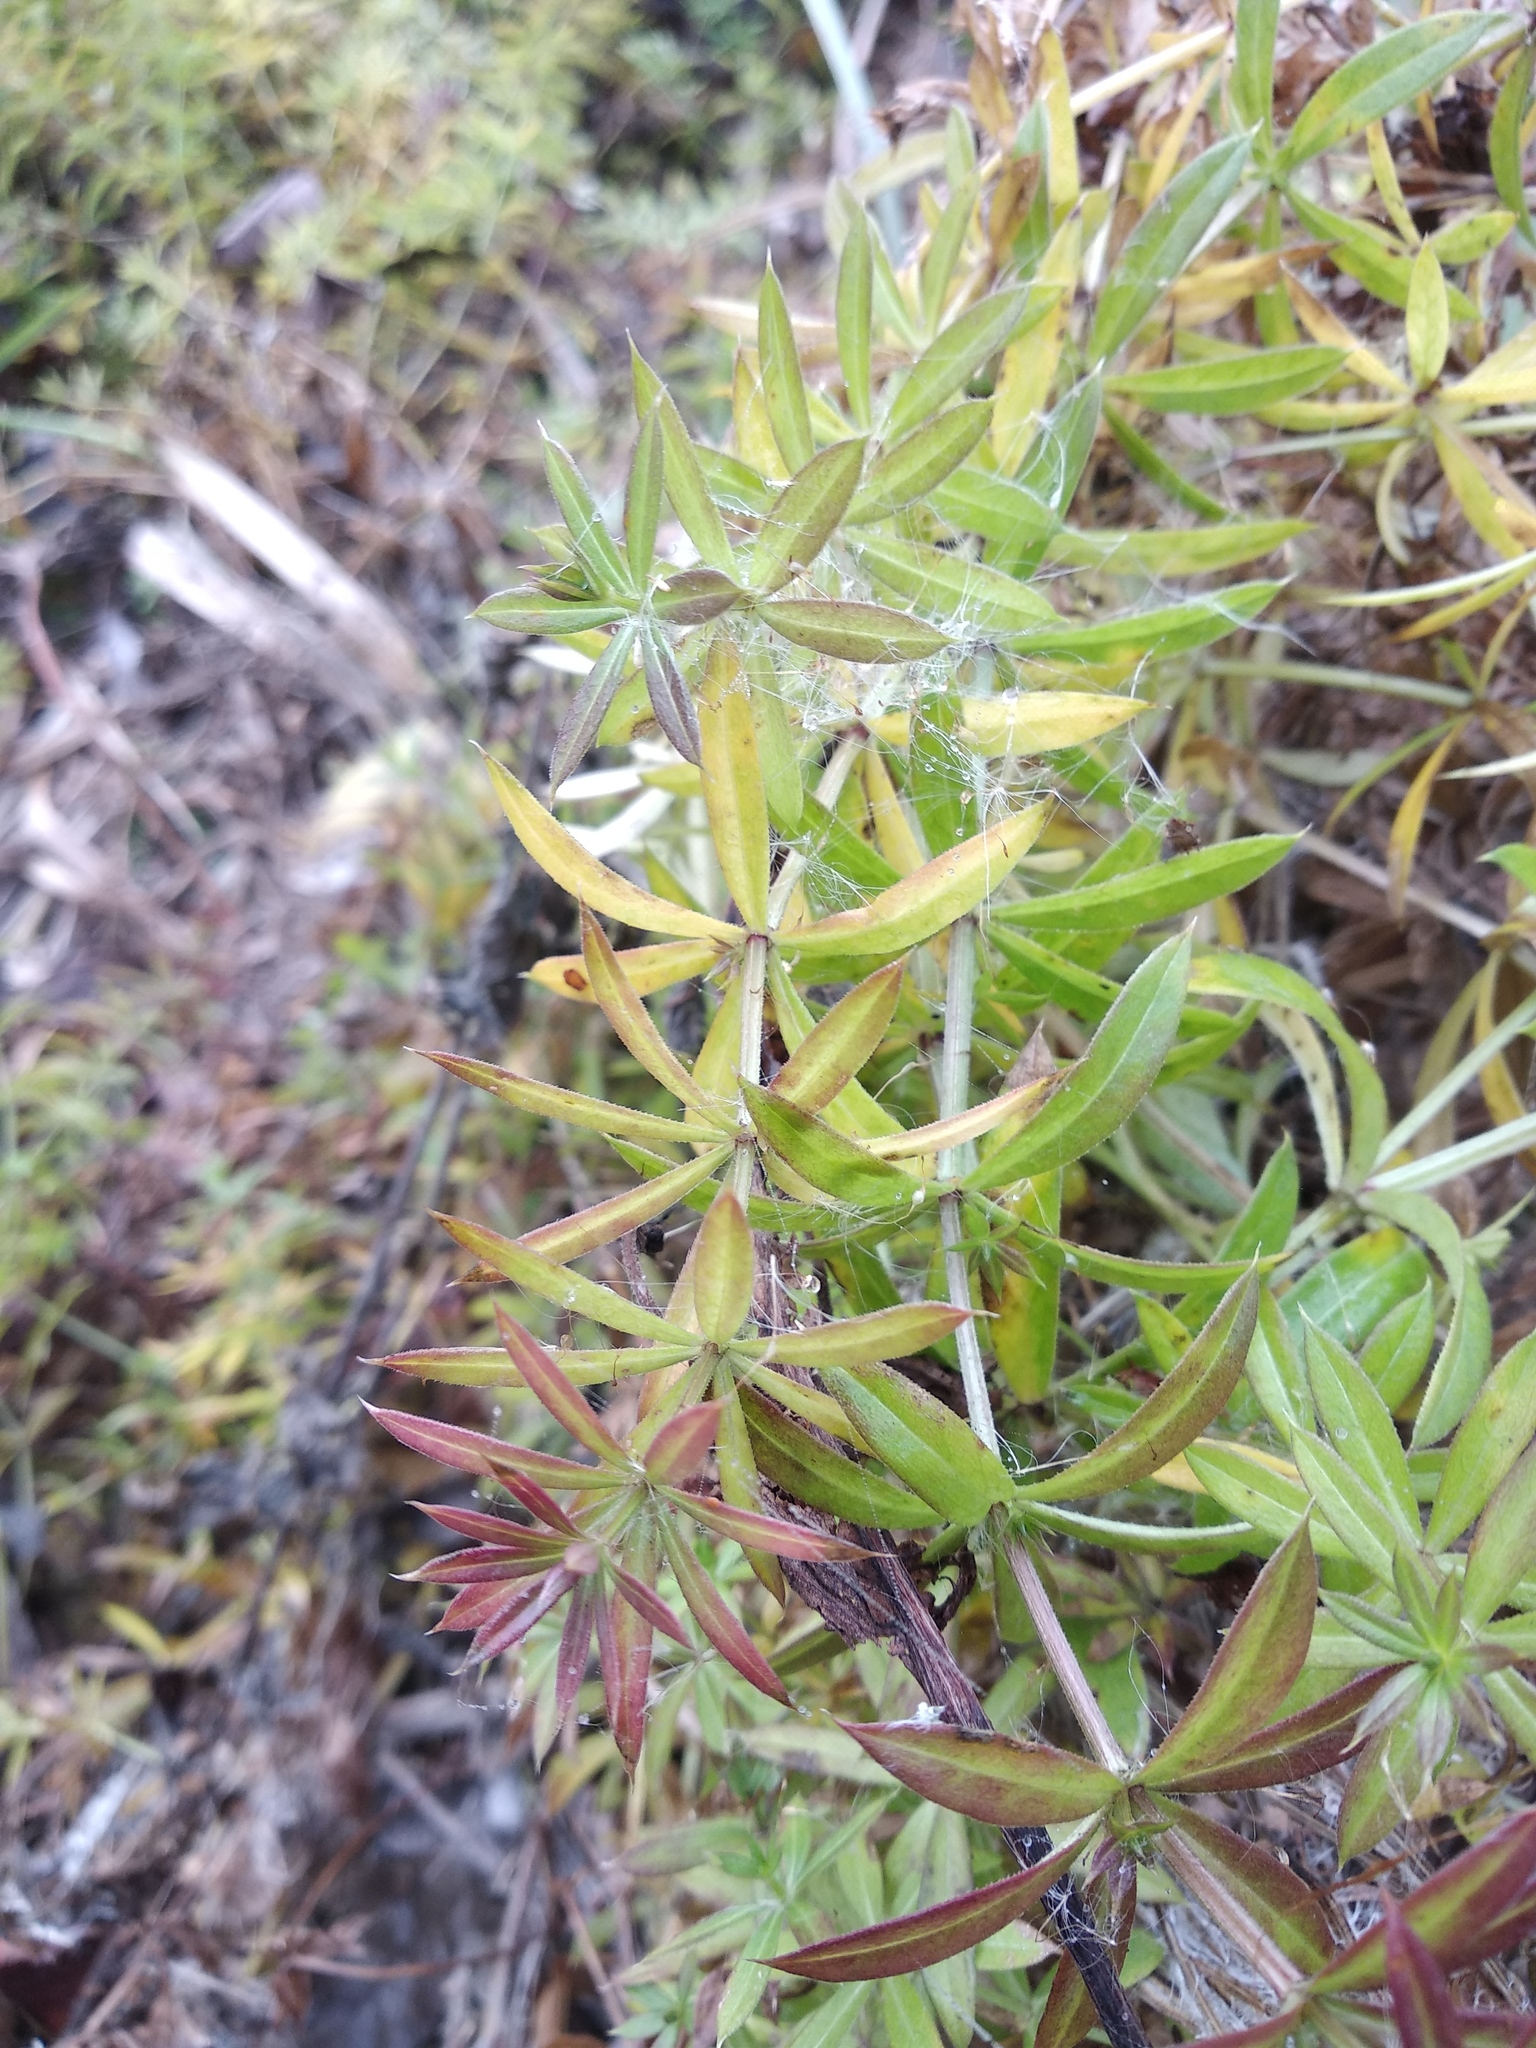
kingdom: Plantae
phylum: Tracheophyta
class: Magnoliopsida
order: Gentianales
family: Rubiaceae
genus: Galium
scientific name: Galium rivale
